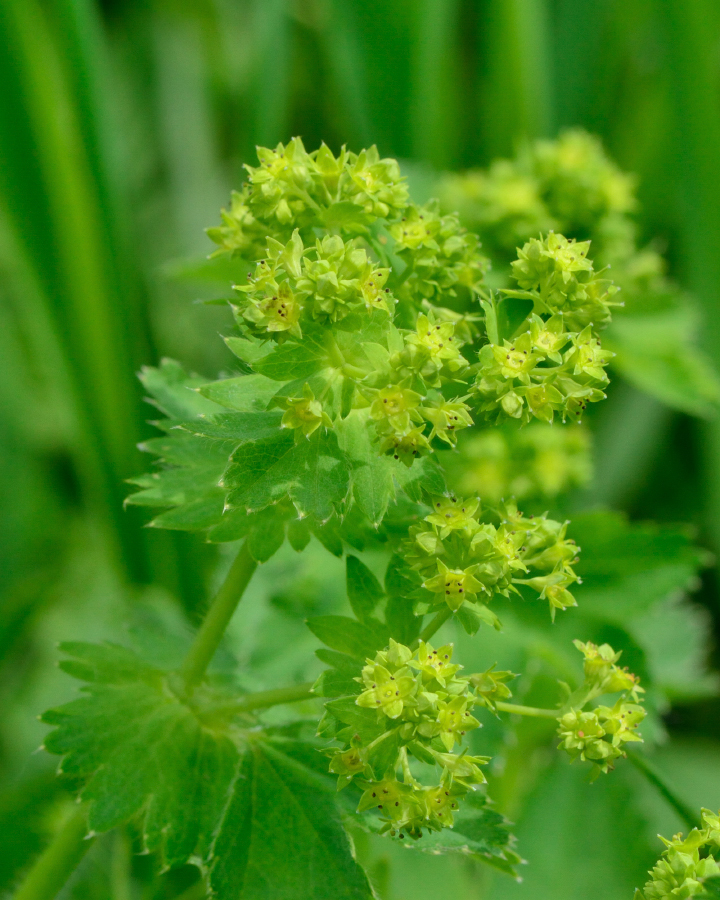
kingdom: Plantae
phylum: Tracheophyta
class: Magnoliopsida
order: Rosales
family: Rosaceae
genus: Alchemilla
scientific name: Alchemilla
